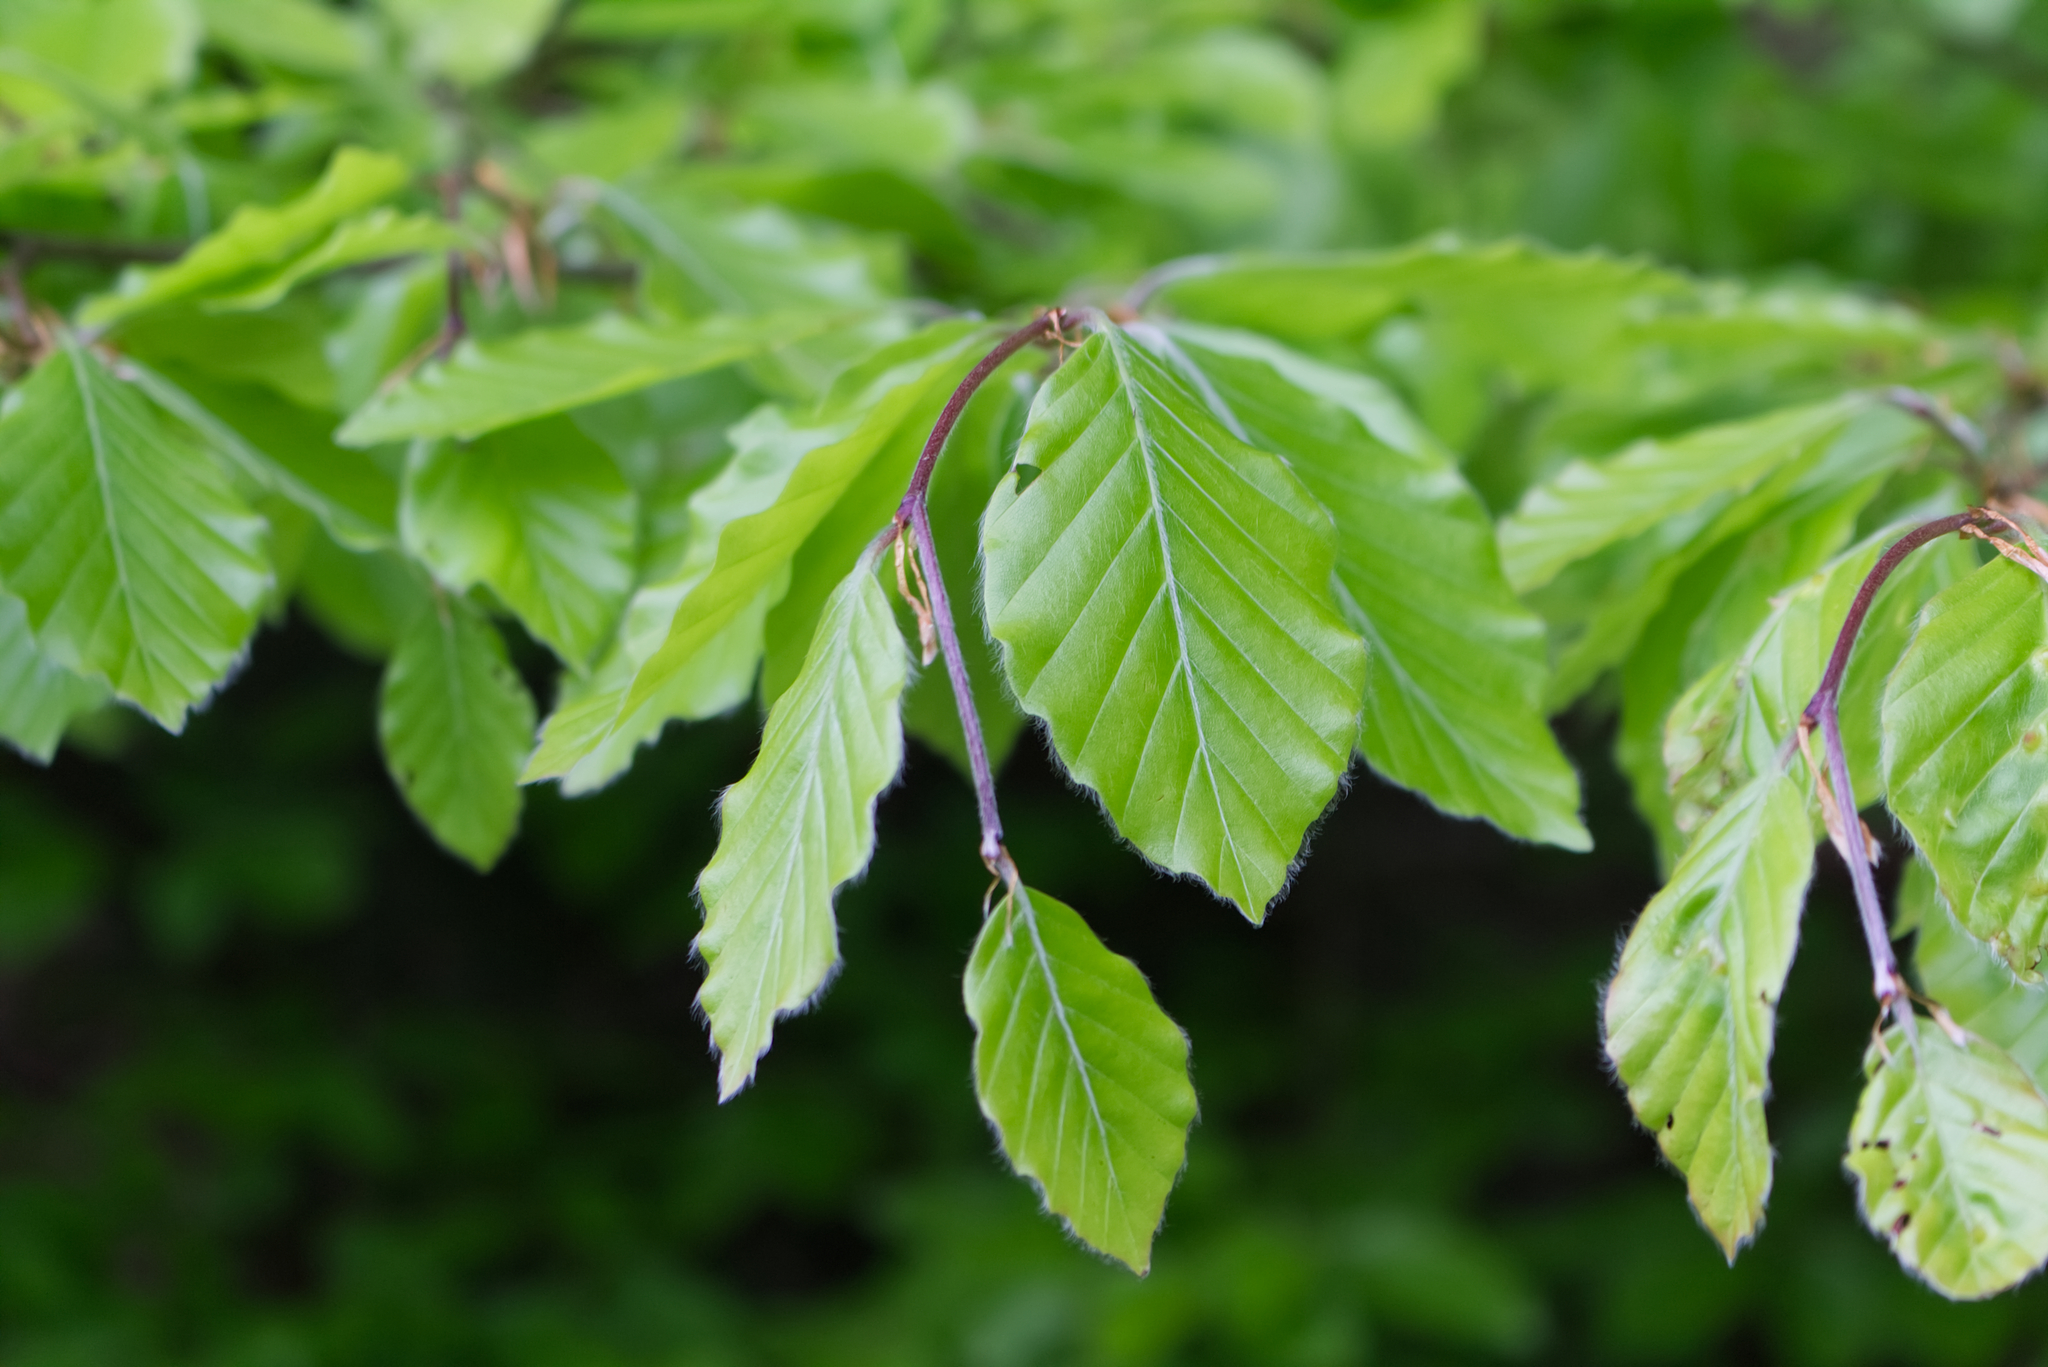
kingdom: Plantae
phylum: Tracheophyta
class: Magnoliopsida
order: Fagales
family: Fagaceae
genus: Fagus
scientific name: Fagus sylvatica
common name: Beech
